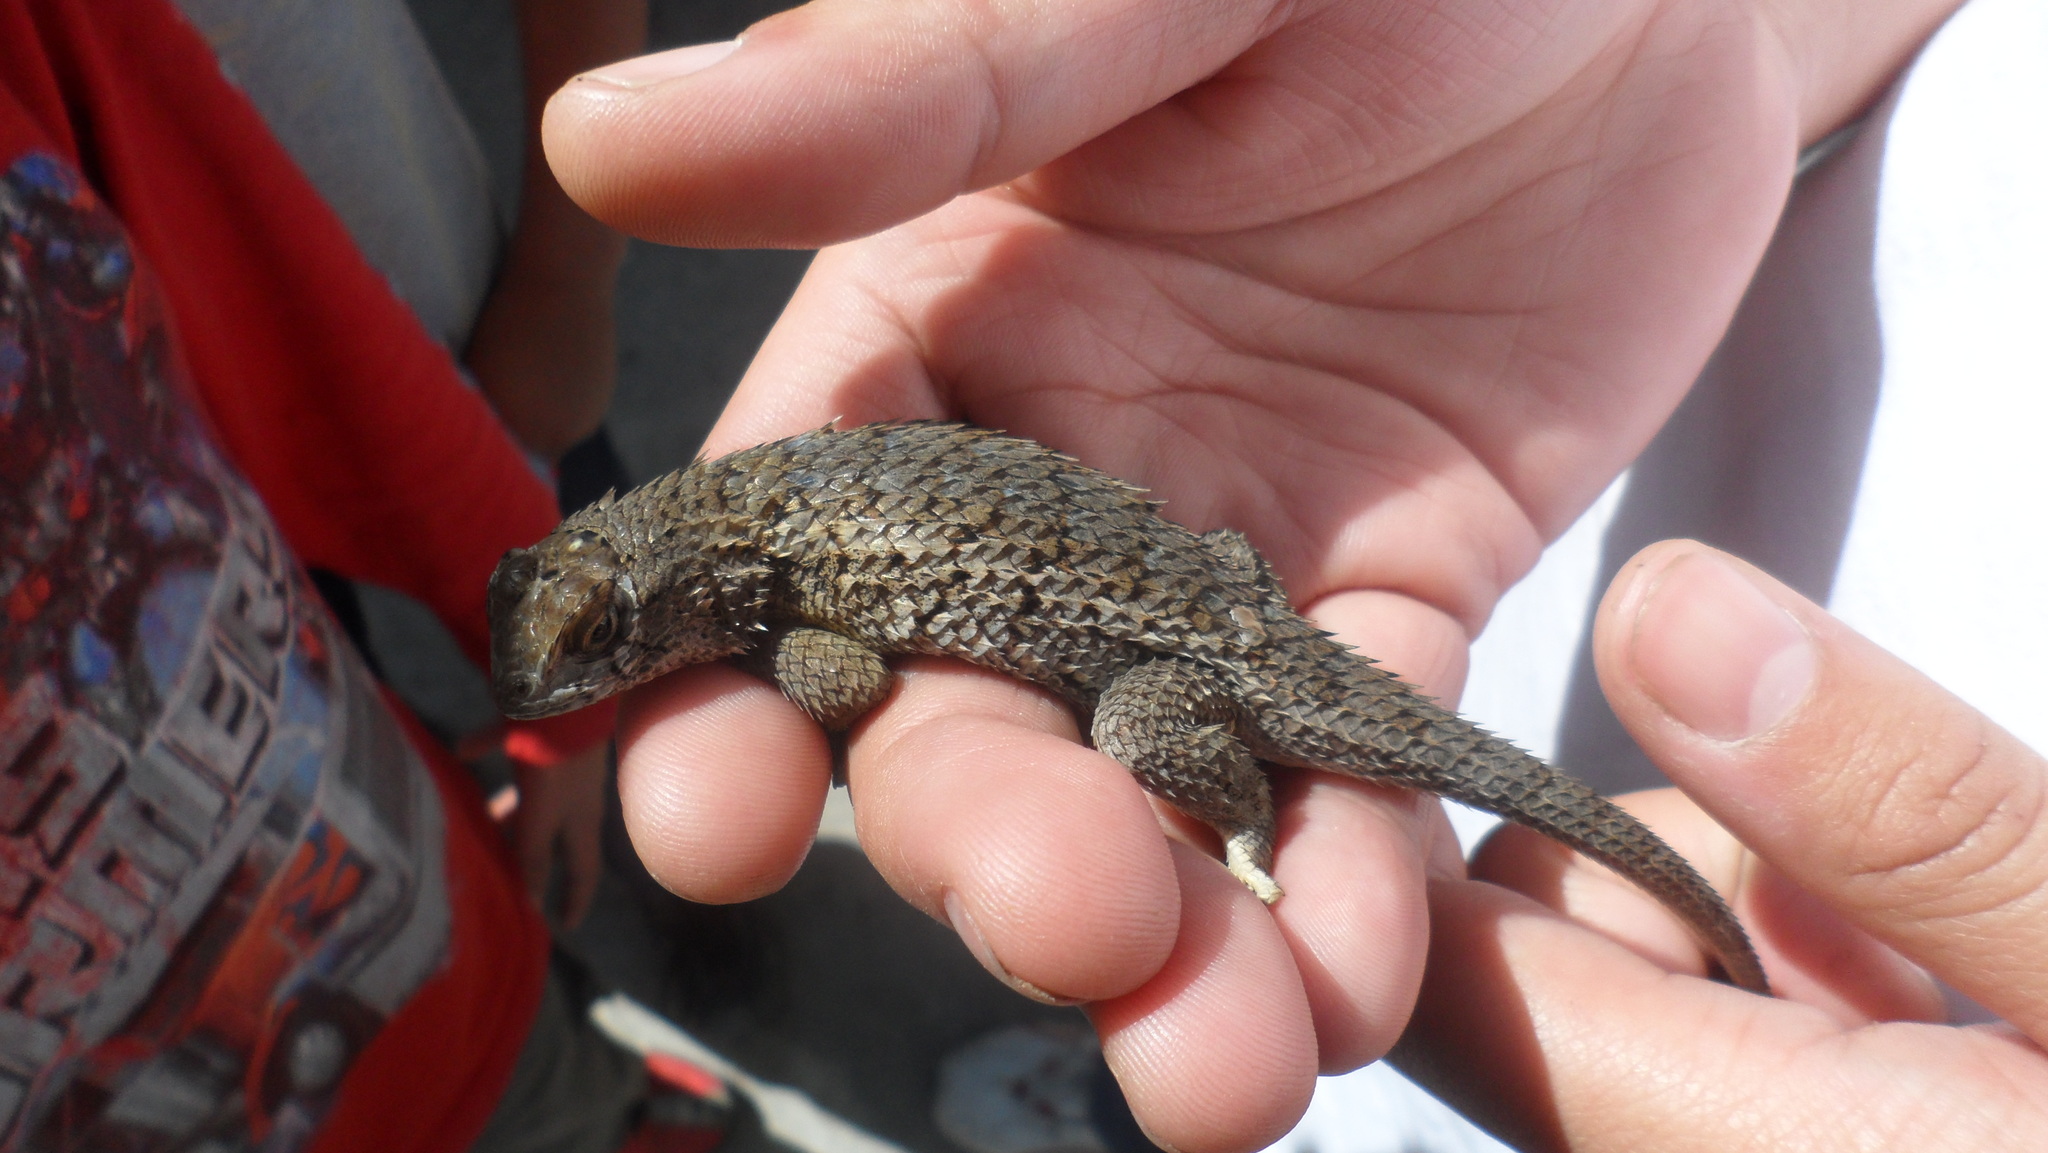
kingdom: Animalia
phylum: Chordata
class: Squamata
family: Phrynosomatidae
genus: Sceloporus
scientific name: Sceloporus horridus
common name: Few-pored rough lizard
